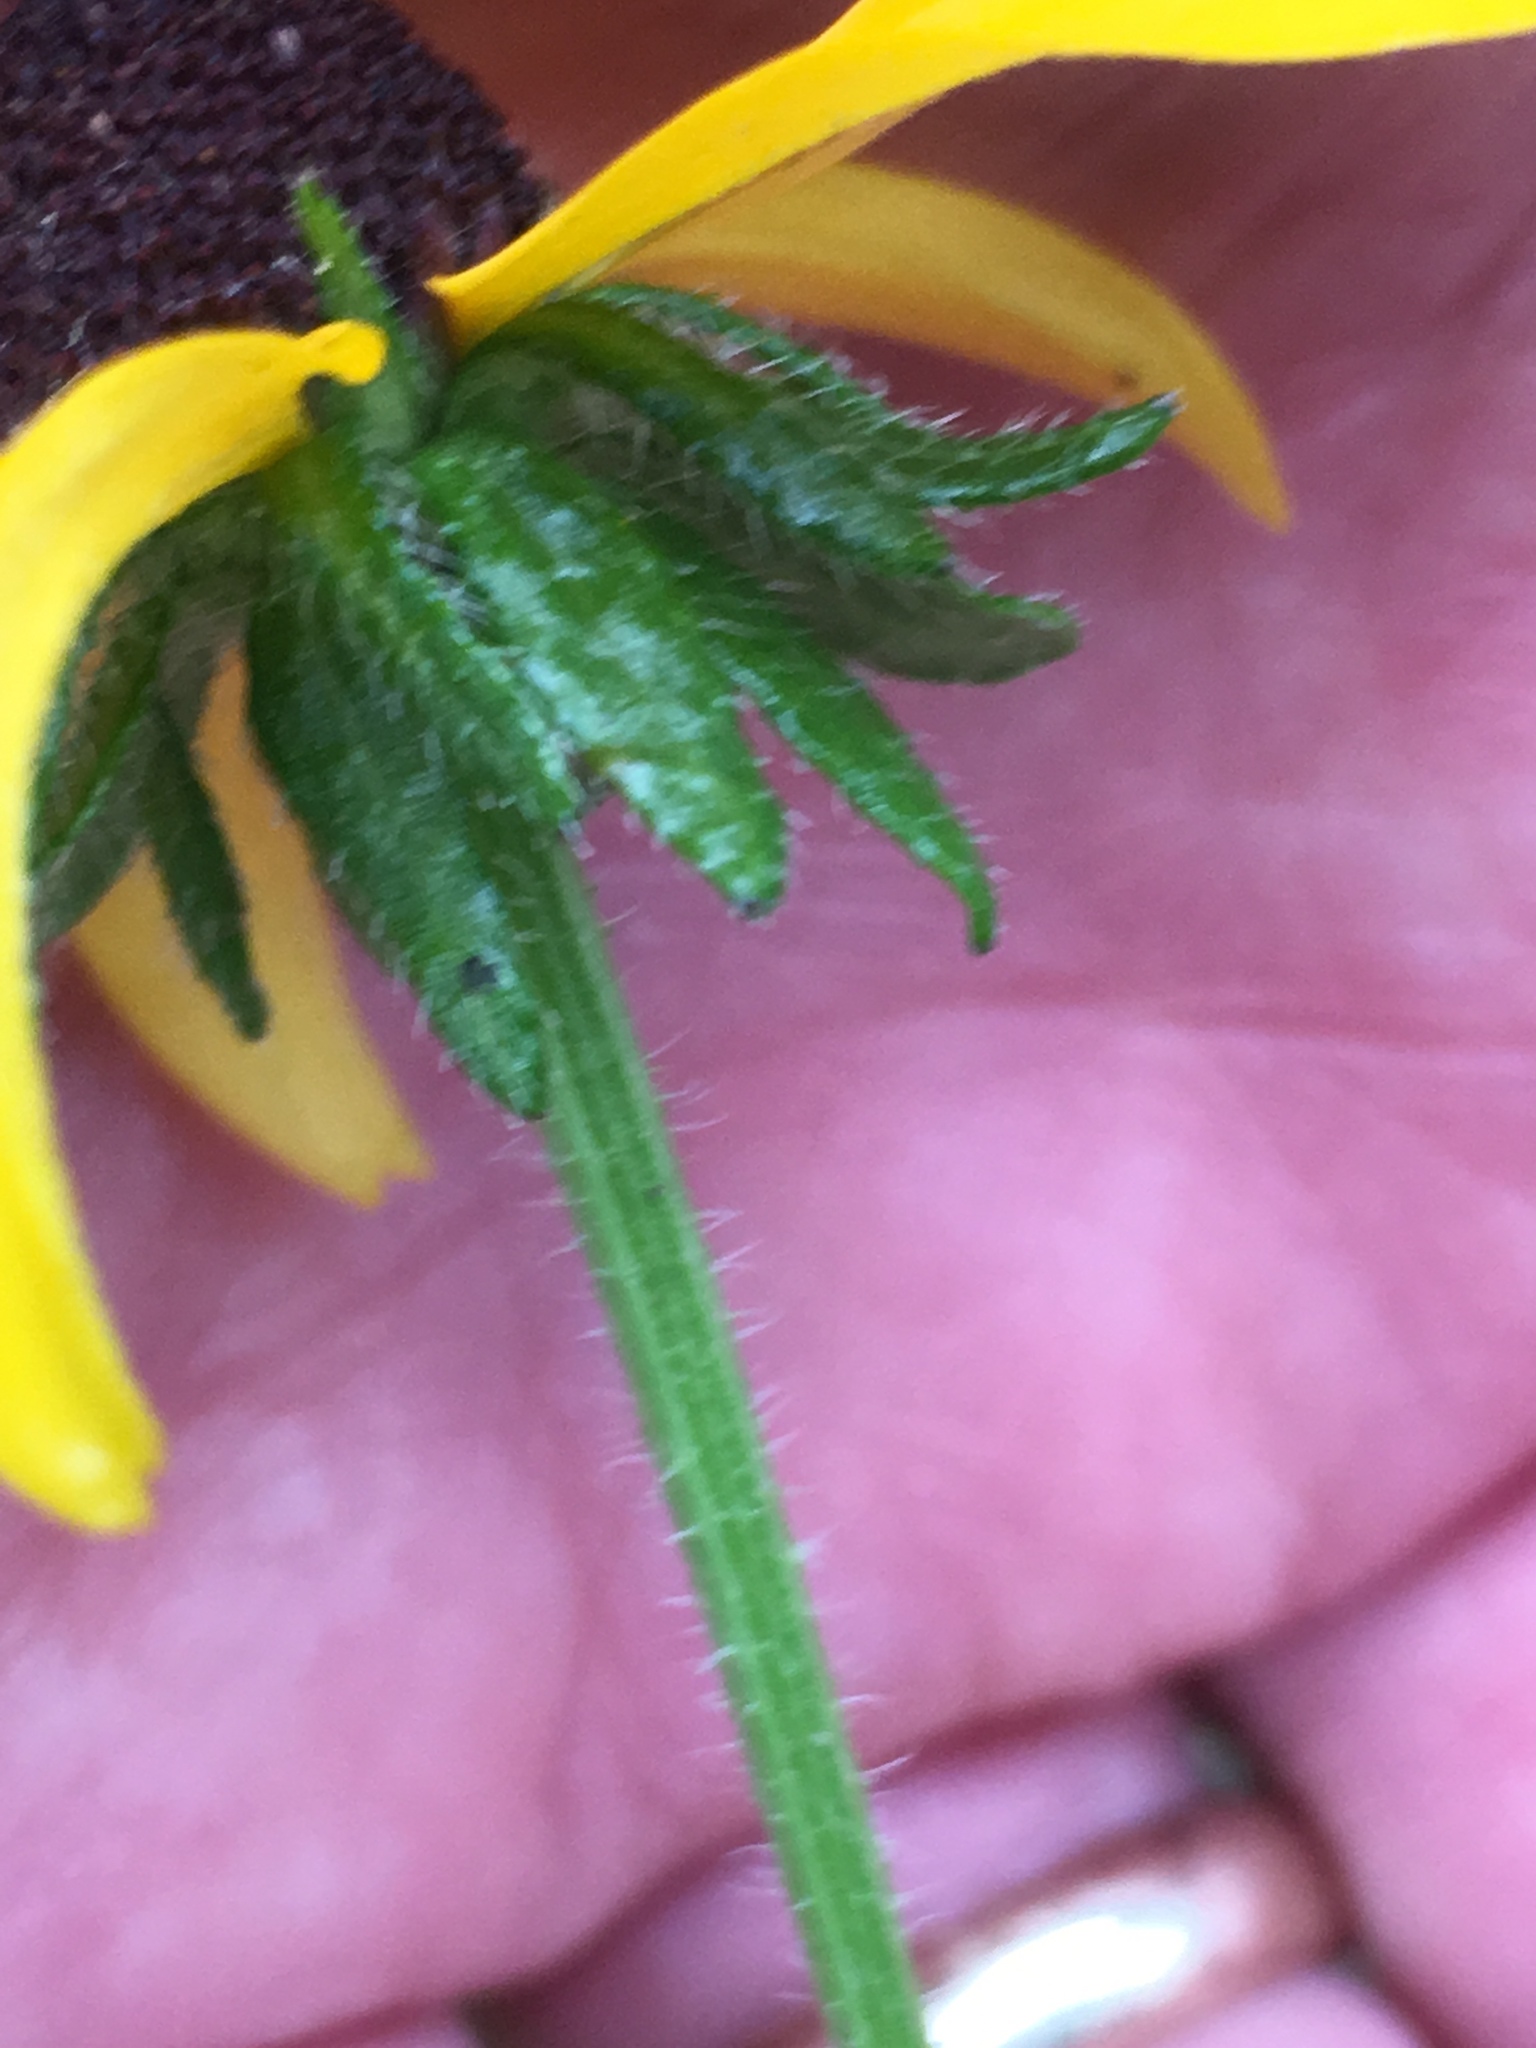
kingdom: Plantae
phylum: Tracheophyta
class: Magnoliopsida
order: Asterales
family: Asteraceae
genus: Rudbeckia
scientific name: Rudbeckia hirta
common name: Black-eyed-susan
